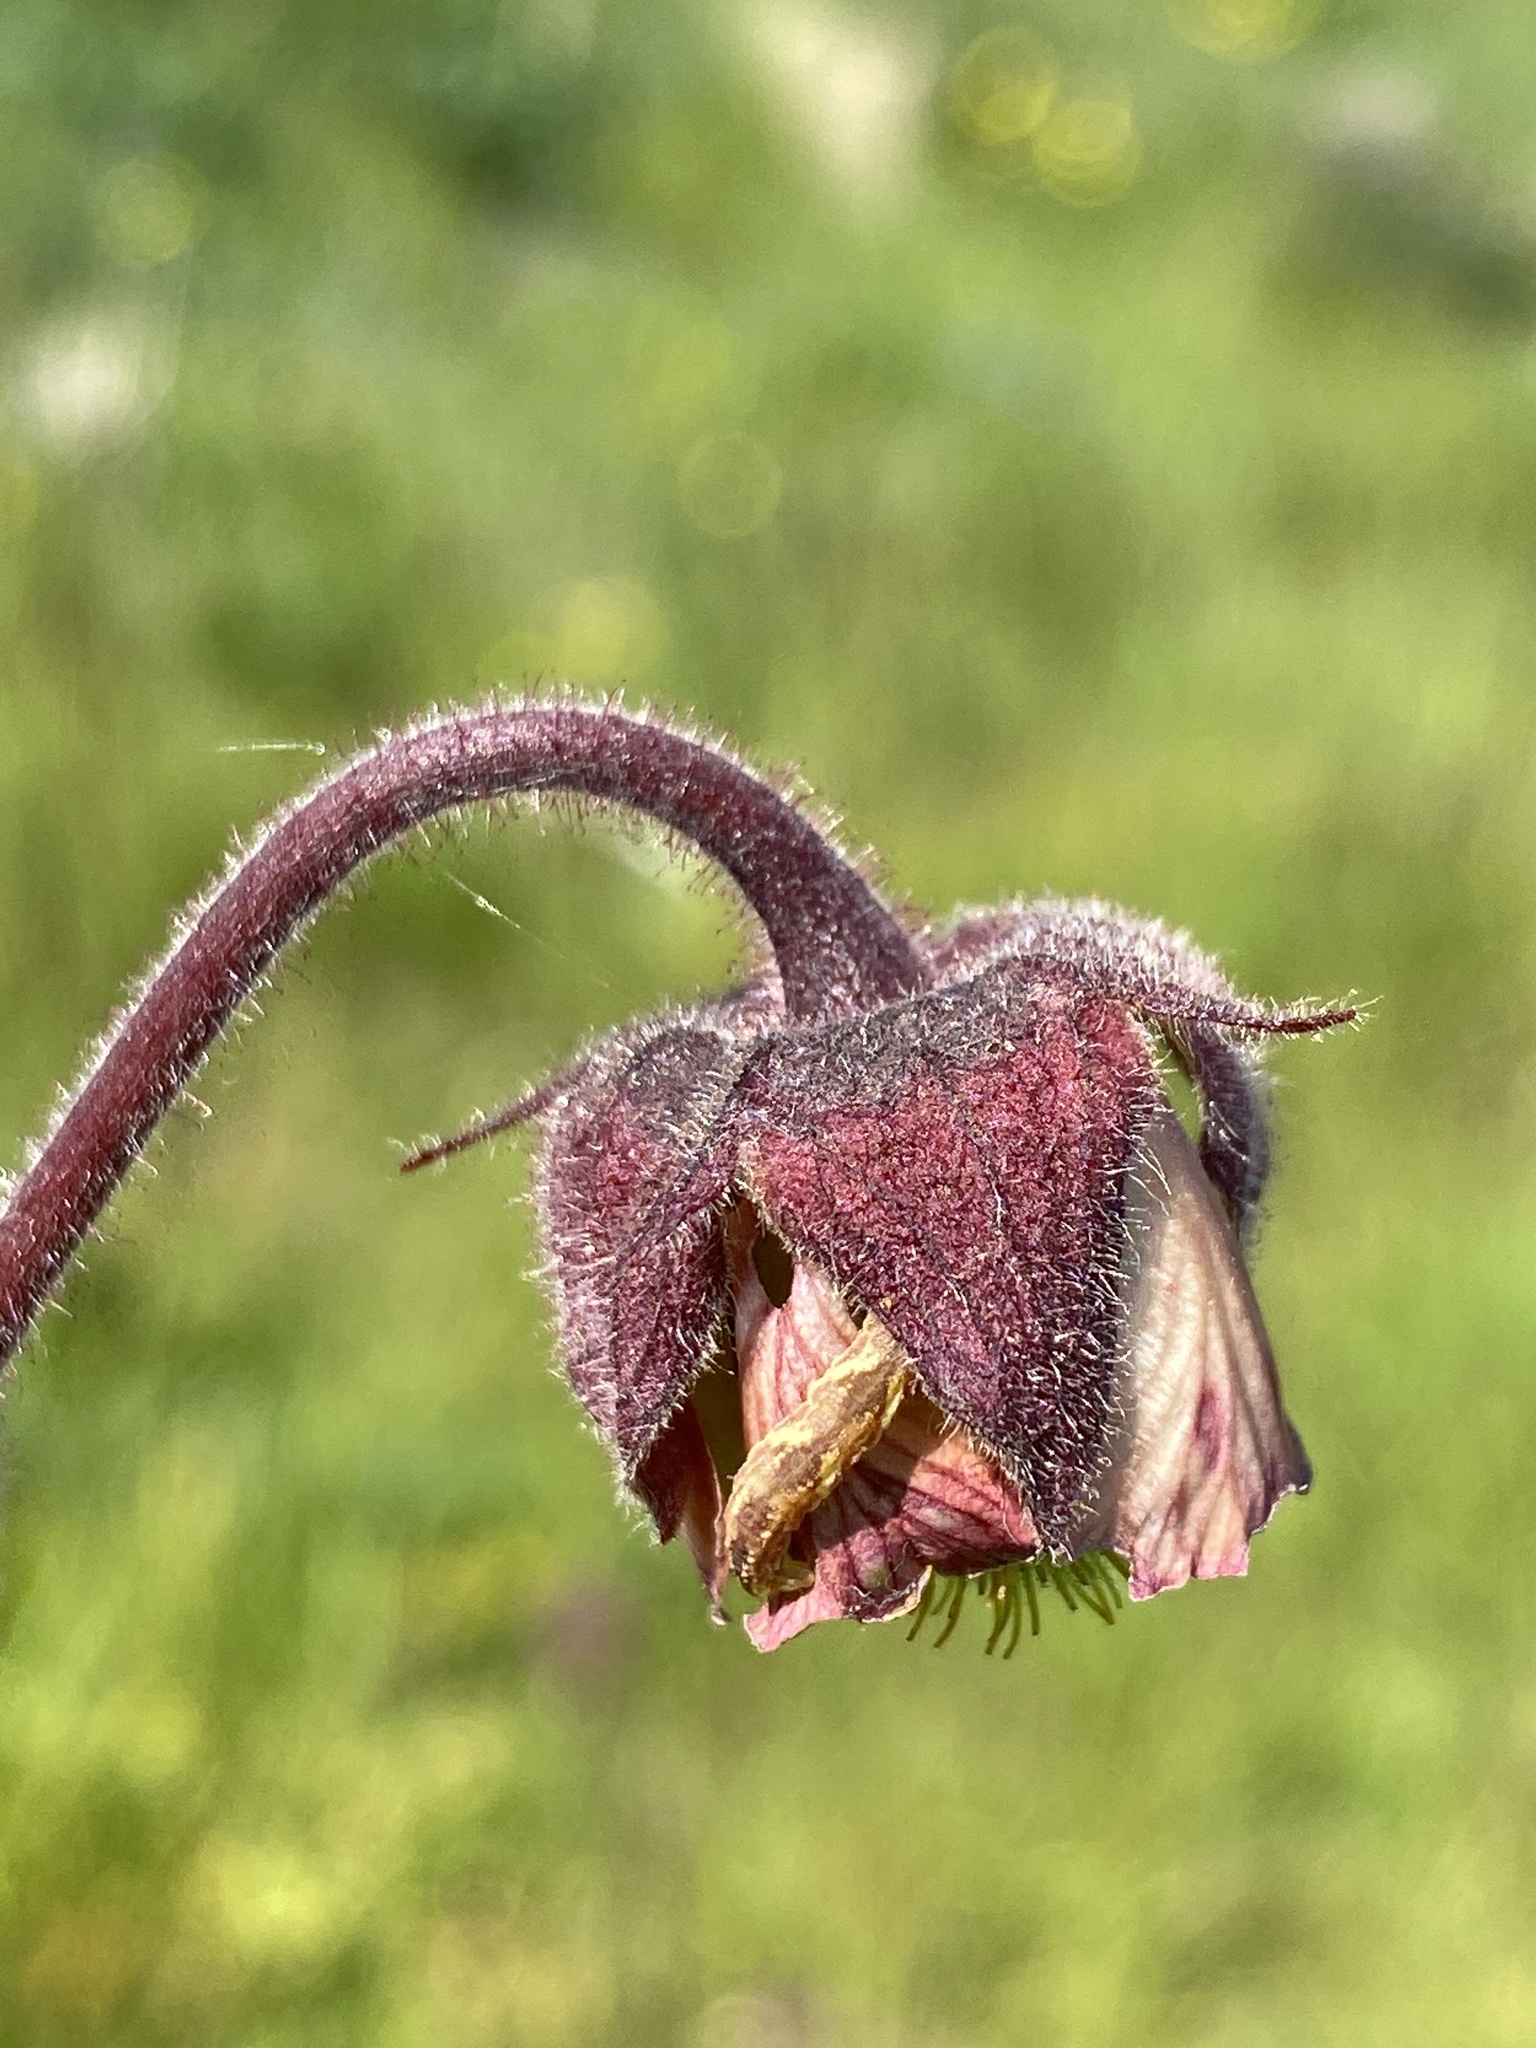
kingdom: Plantae
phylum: Tracheophyta
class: Magnoliopsida
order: Rosales
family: Rosaceae
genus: Geum
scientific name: Geum rivale
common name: Water avens
